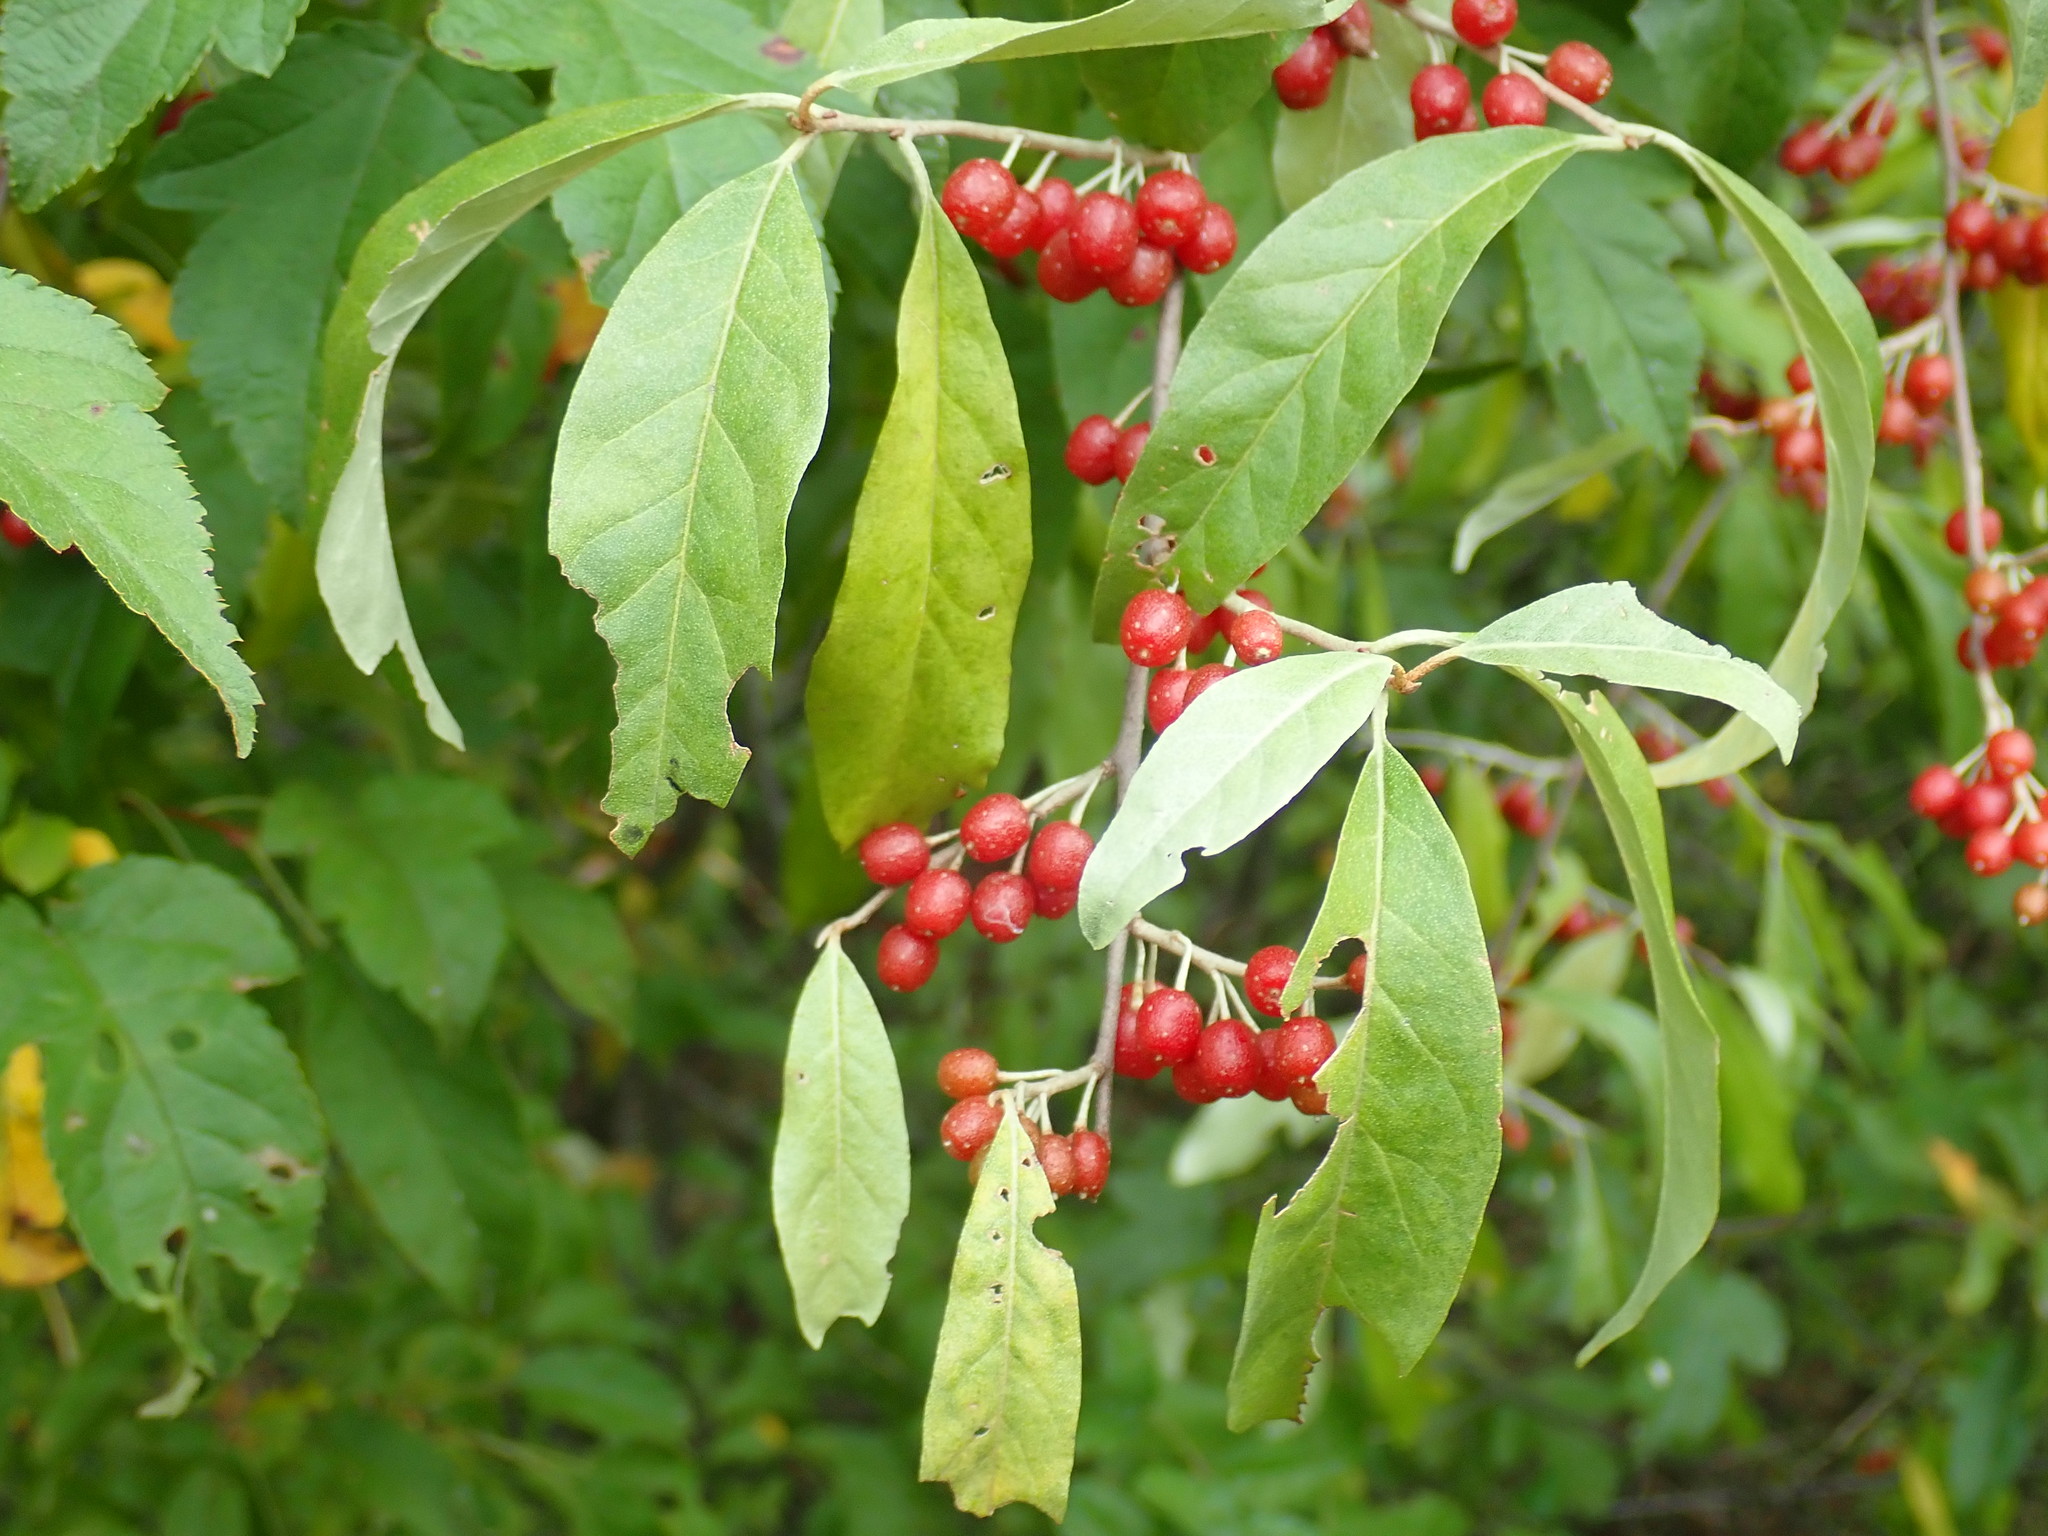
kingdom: Plantae
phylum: Tracheophyta
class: Magnoliopsida
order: Rosales
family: Elaeagnaceae
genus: Elaeagnus
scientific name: Elaeagnus umbellata
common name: Autumn olive
